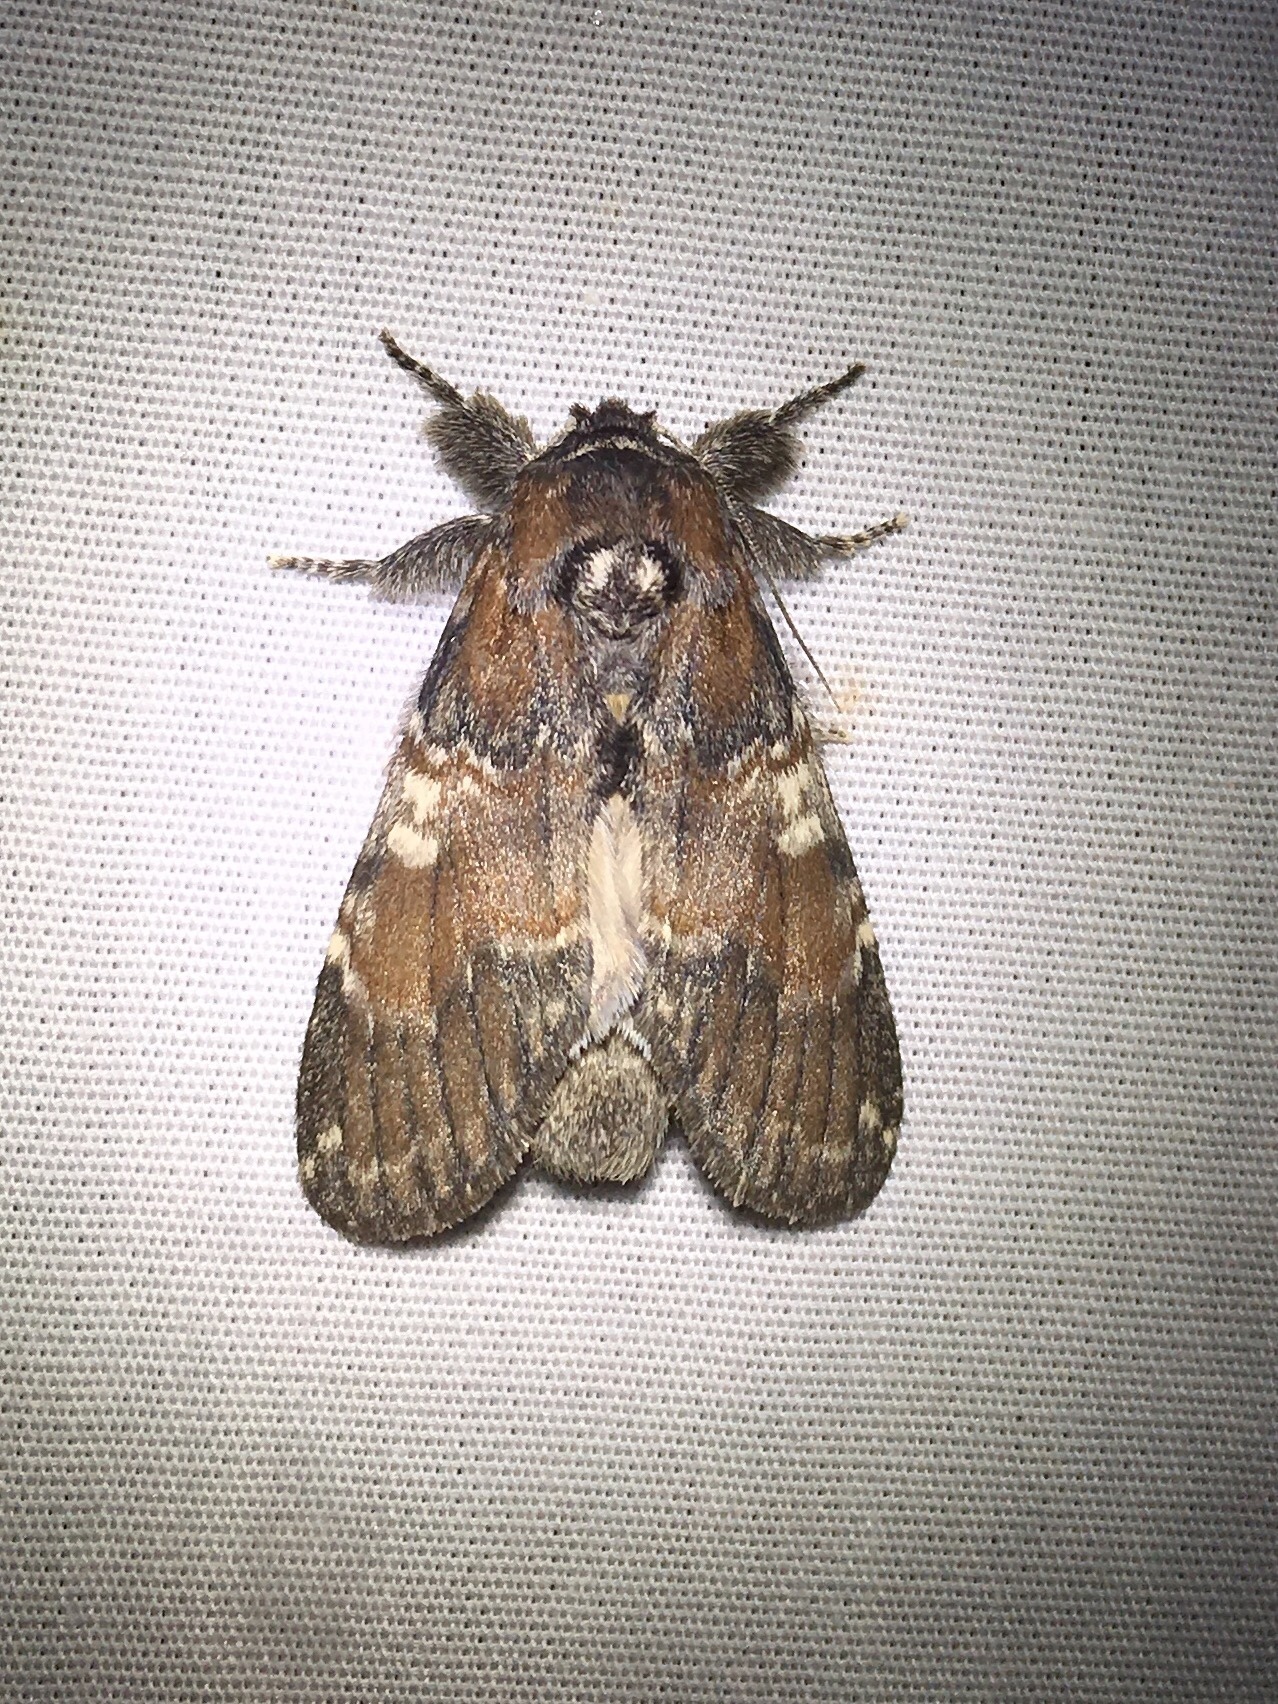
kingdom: Animalia
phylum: Arthropoda
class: Insecta
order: Lepidoptera
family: Notodontidae
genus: Peridea
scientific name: Peridea ferruginea
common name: Chocolate prominent
